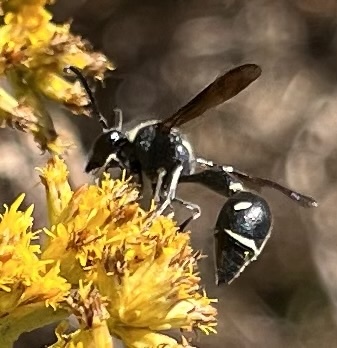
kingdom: Animalia
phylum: Arthropoda
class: Insecta
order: Hymenoptera
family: Vespidae
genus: Eumenes
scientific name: Eumenes fraternus
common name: Fraternal potter wasp
